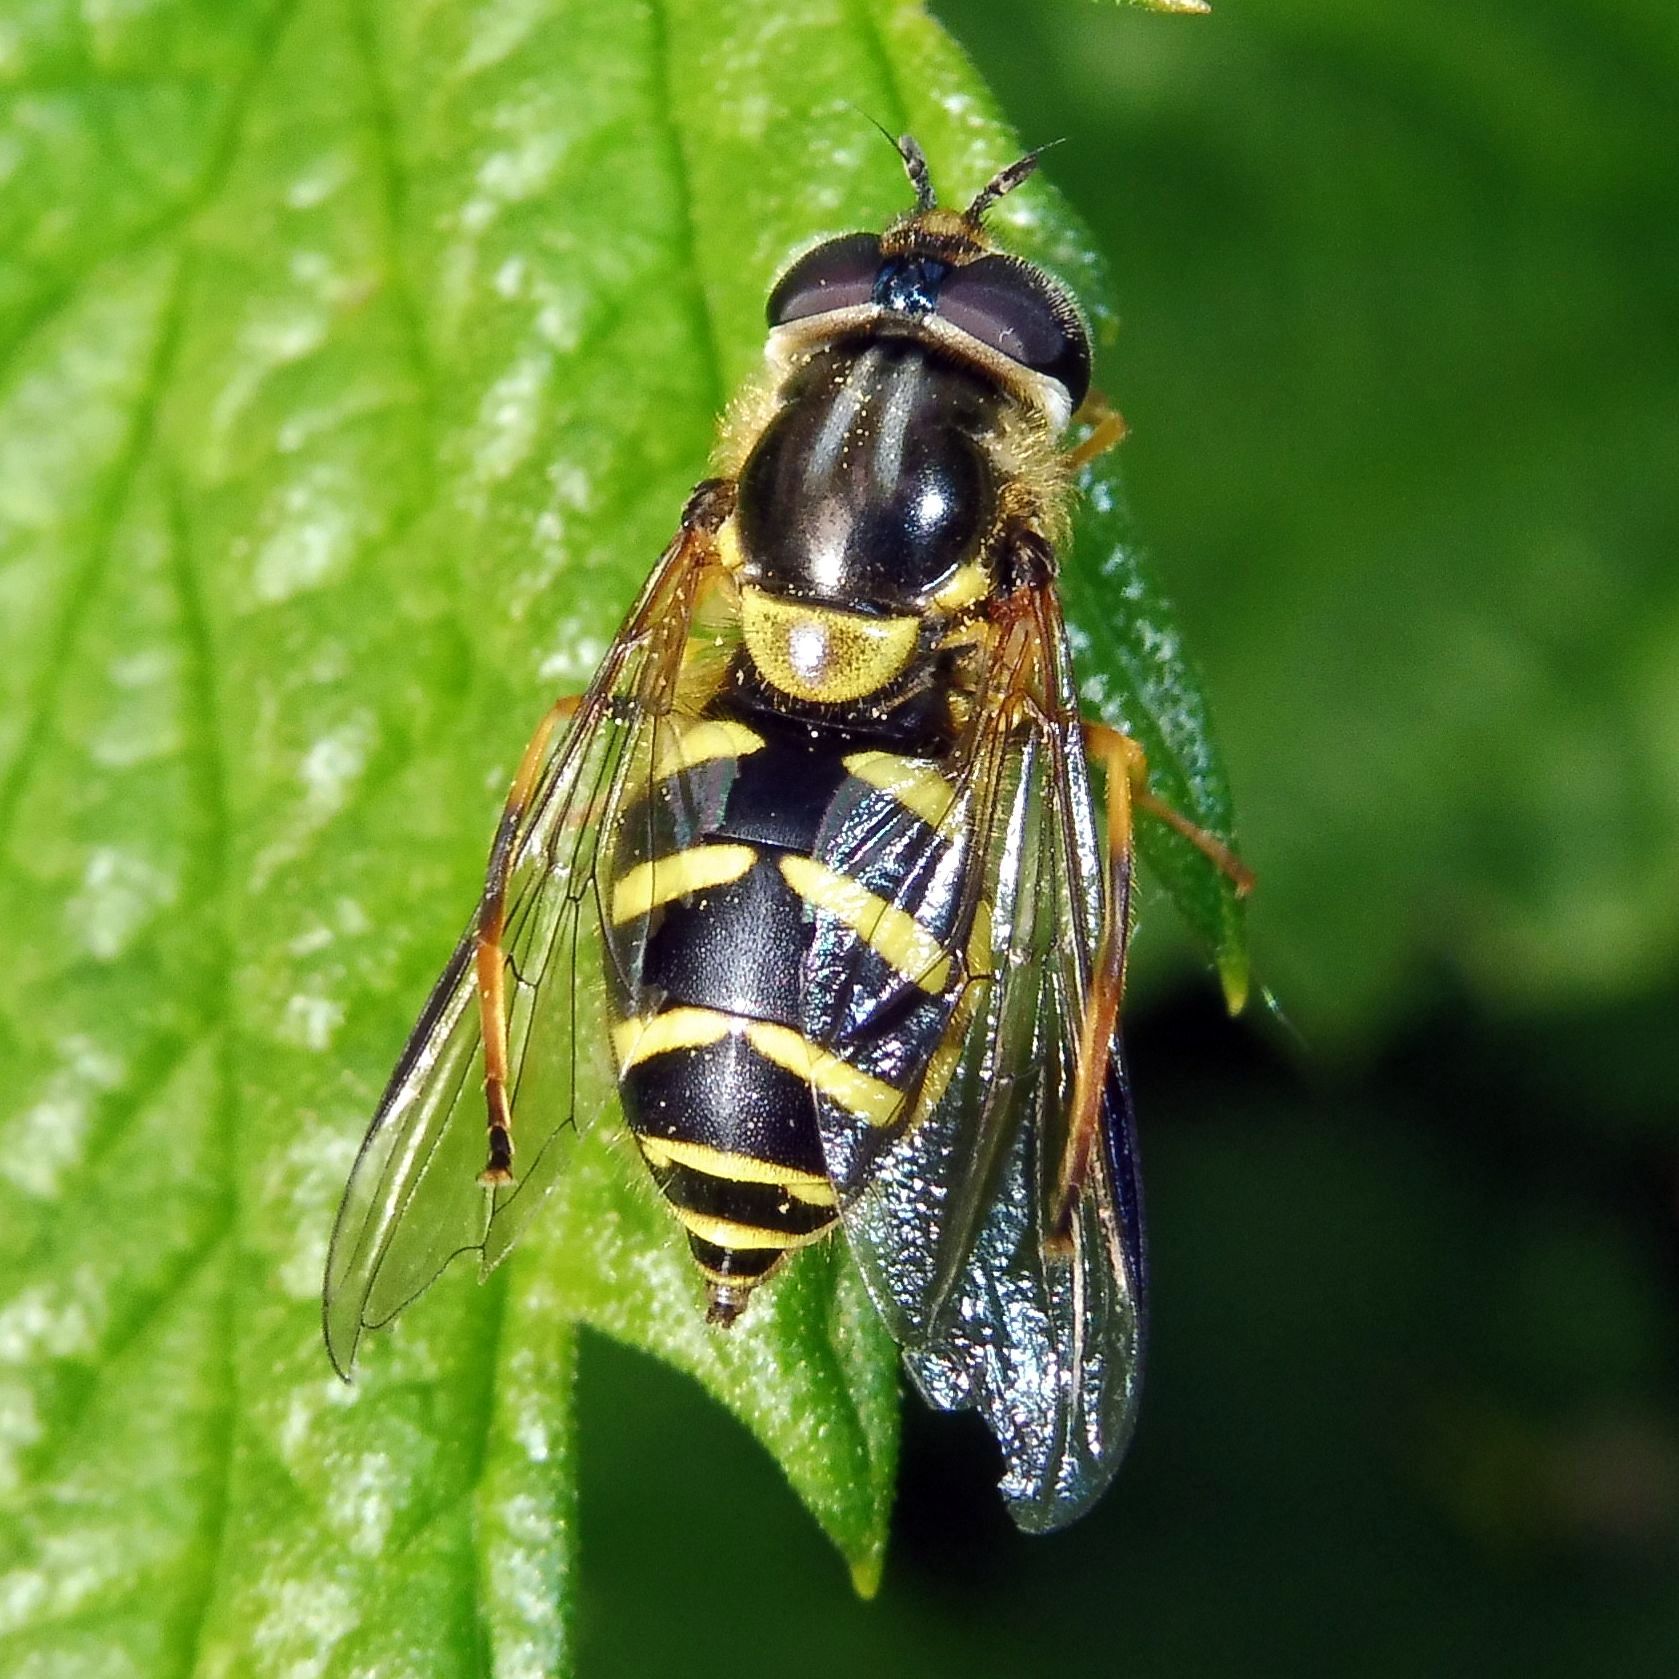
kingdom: Animalia
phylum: Arthropoda
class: Insecta
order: Diptera
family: Syrphidae
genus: Dasysyrphus
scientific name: Dasysyrphus albostriatus
